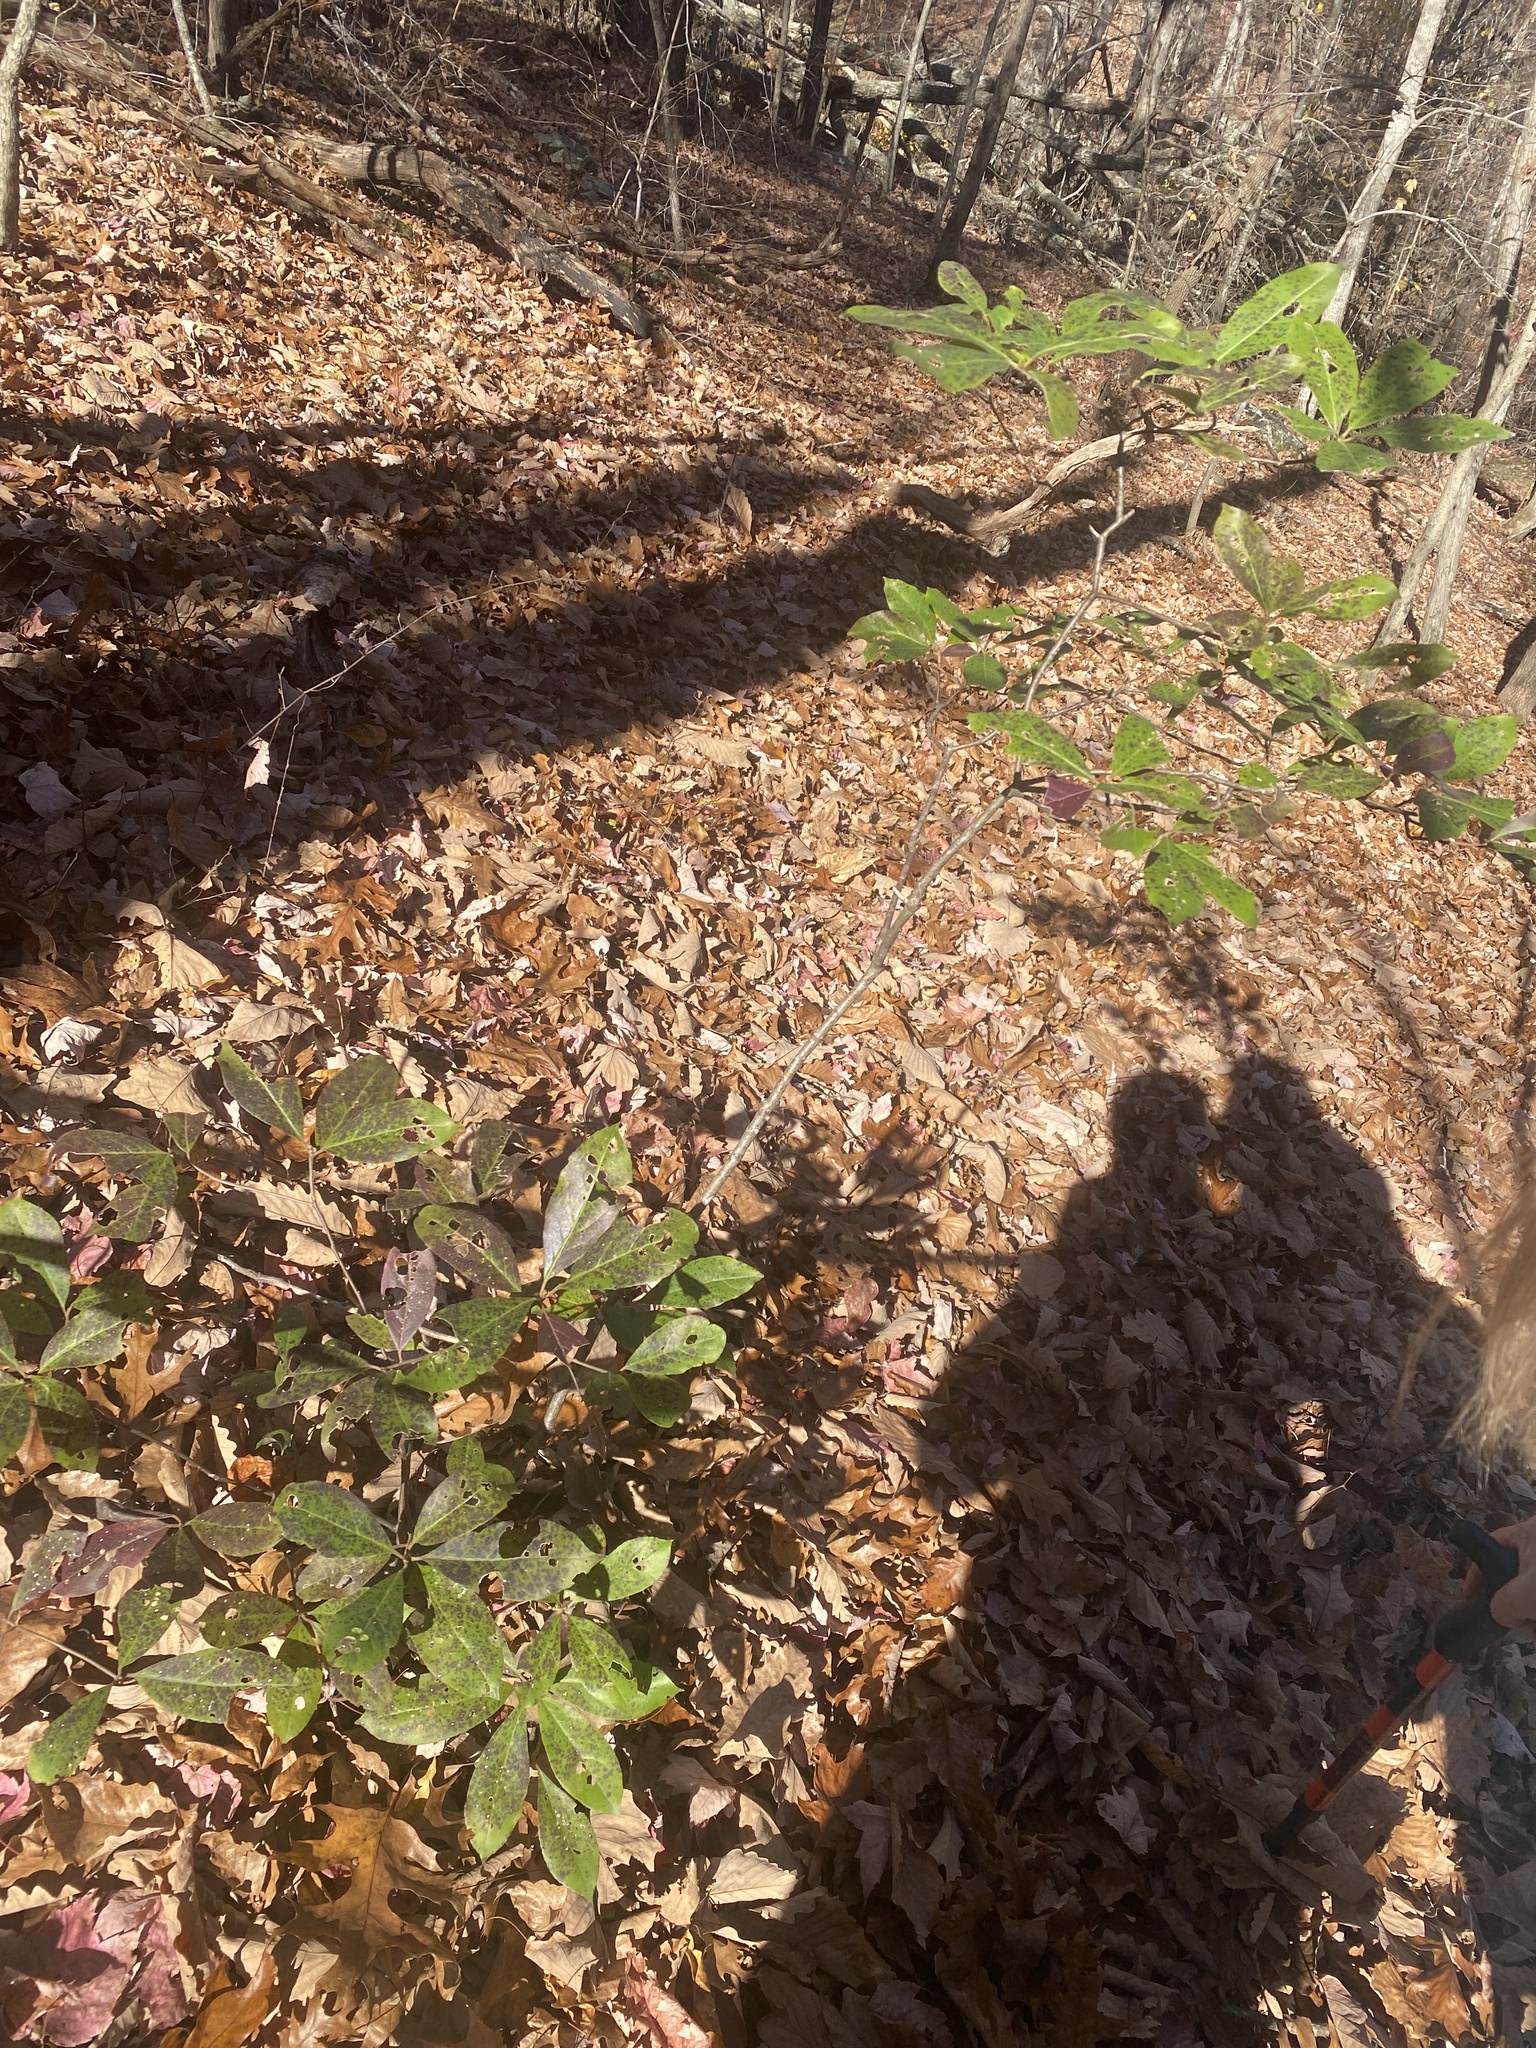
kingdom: Plantae
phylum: Tracheophyta
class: Magnoliopsida
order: Ericales
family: Symplocaceae
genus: Symplocos
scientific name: Symplocos tinctoria
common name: Horse-sugar
